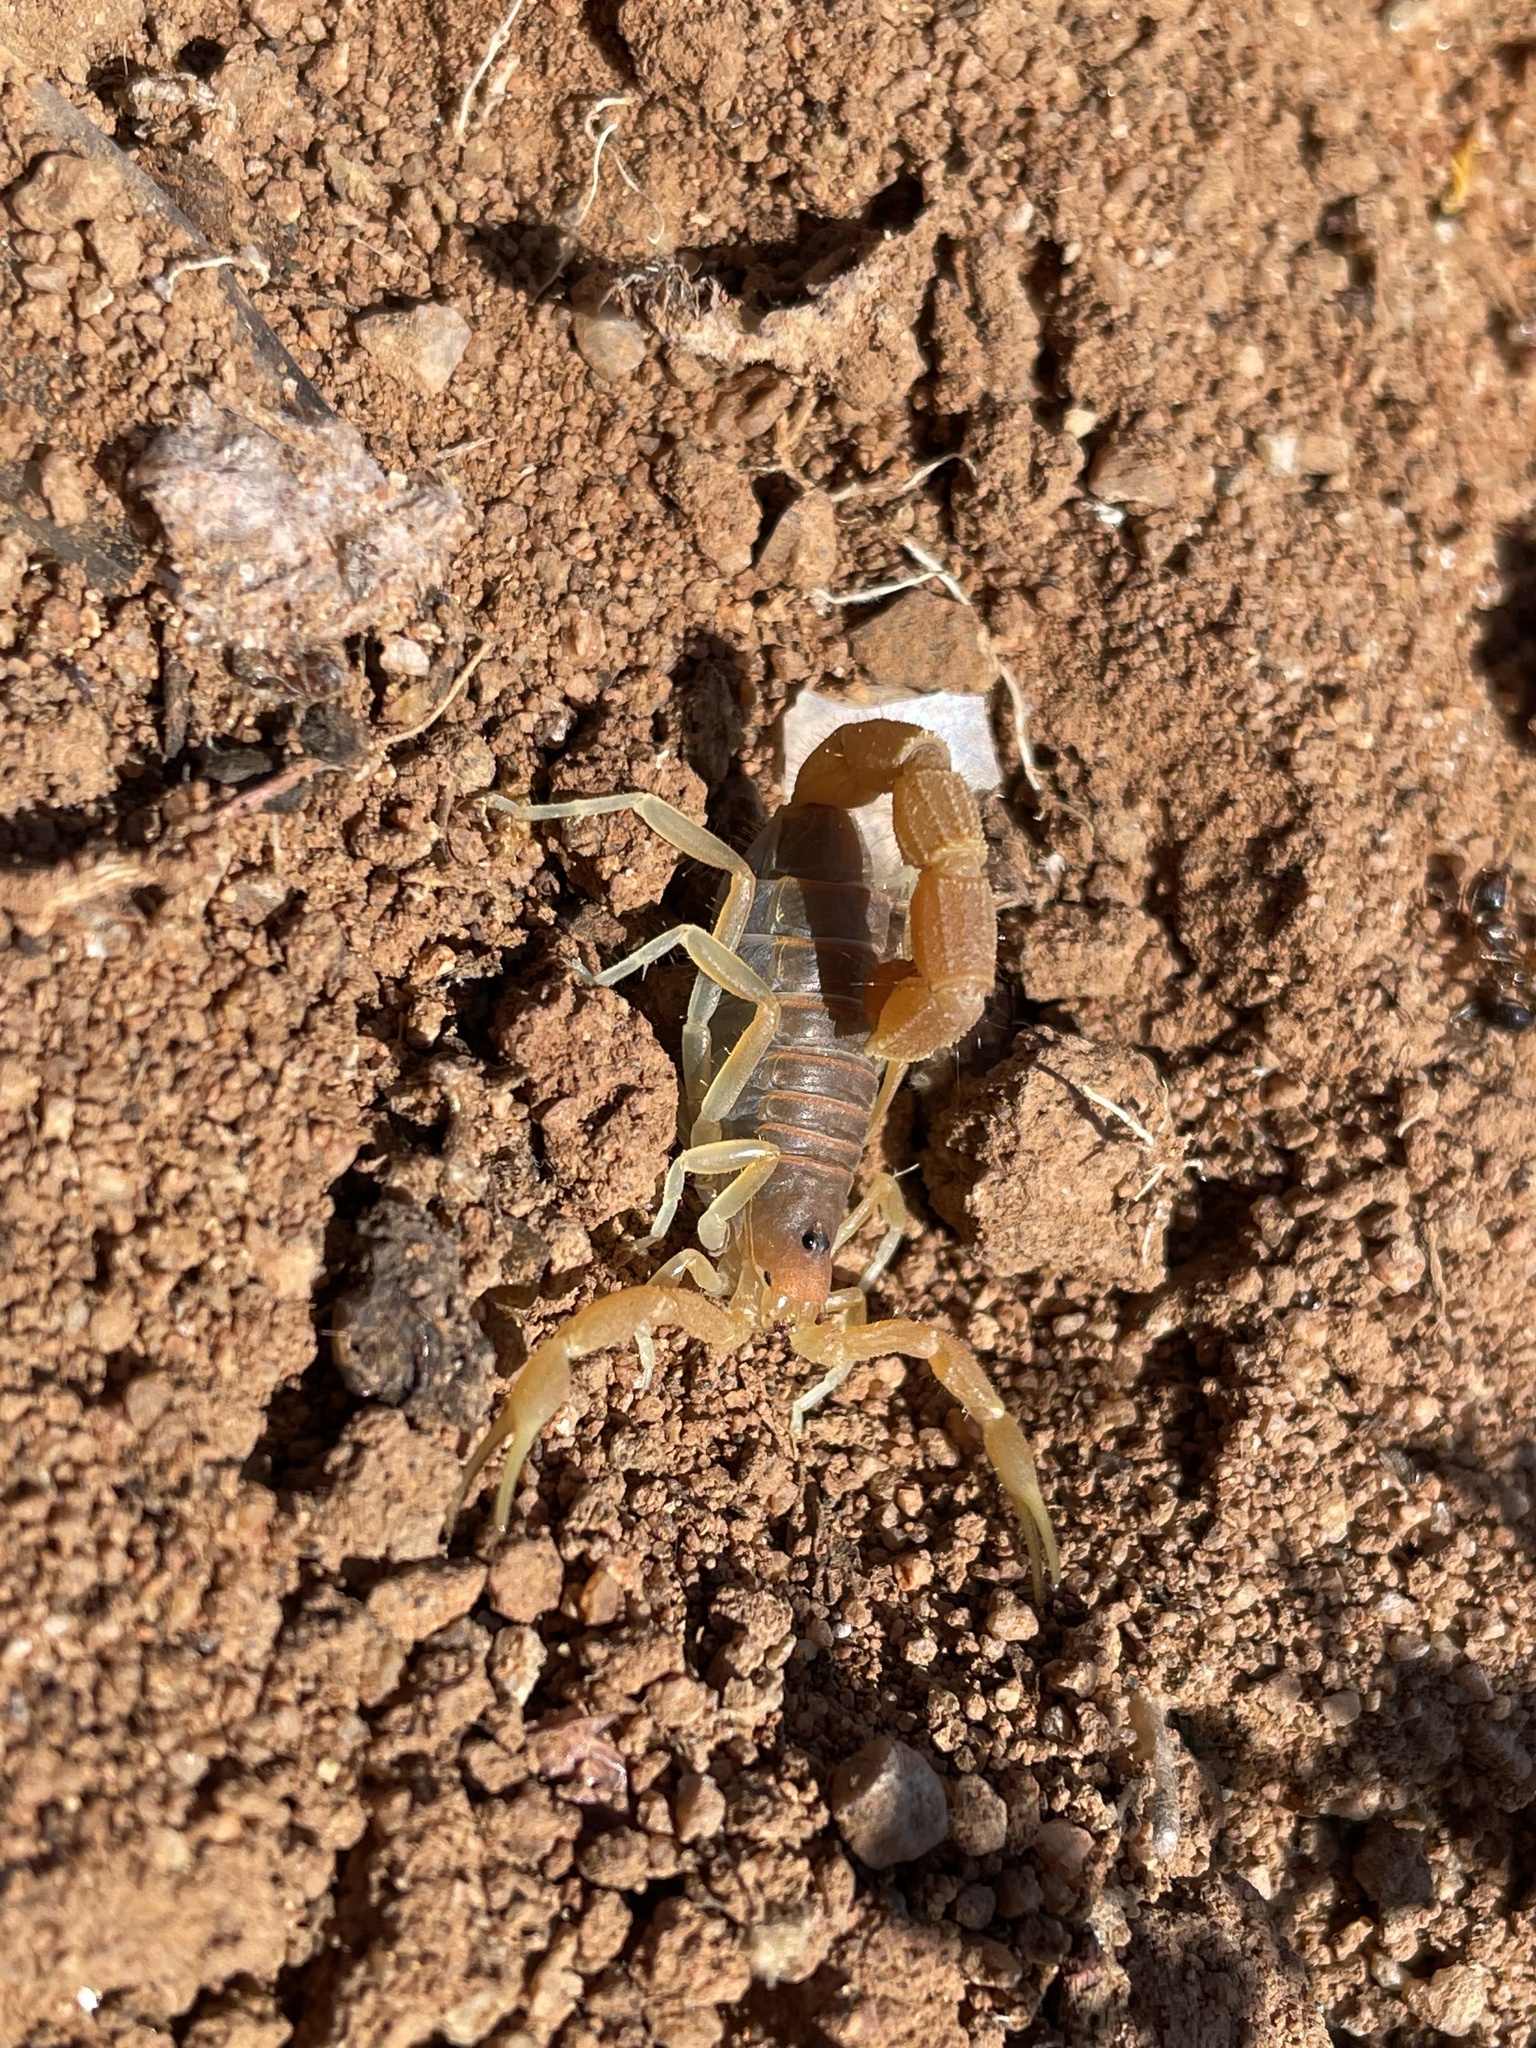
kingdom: Animalia
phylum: Arthropoda
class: Arachnida
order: Scorpiones
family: Buthidae
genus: Parabuthus
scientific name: Parabuthus capensis
